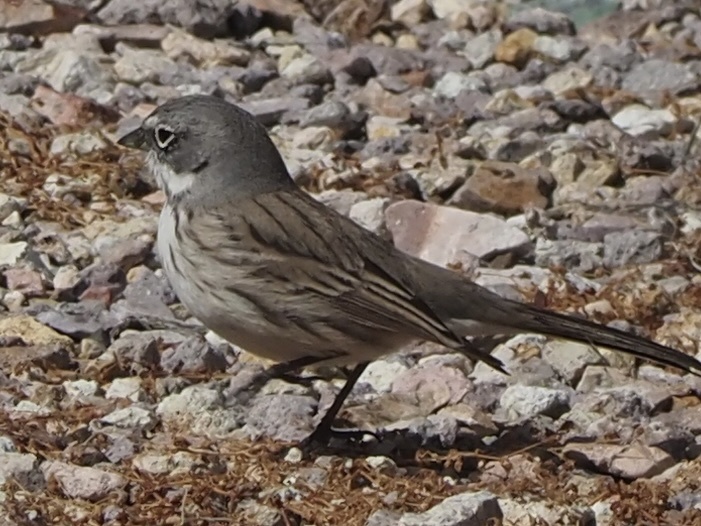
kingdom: Animalia
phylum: Chordata
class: Aves
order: Passeriformes
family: Passerellidae
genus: Artemisiospiza
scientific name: Artemisiospiza nevadensis
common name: Sagebrush sparrow
